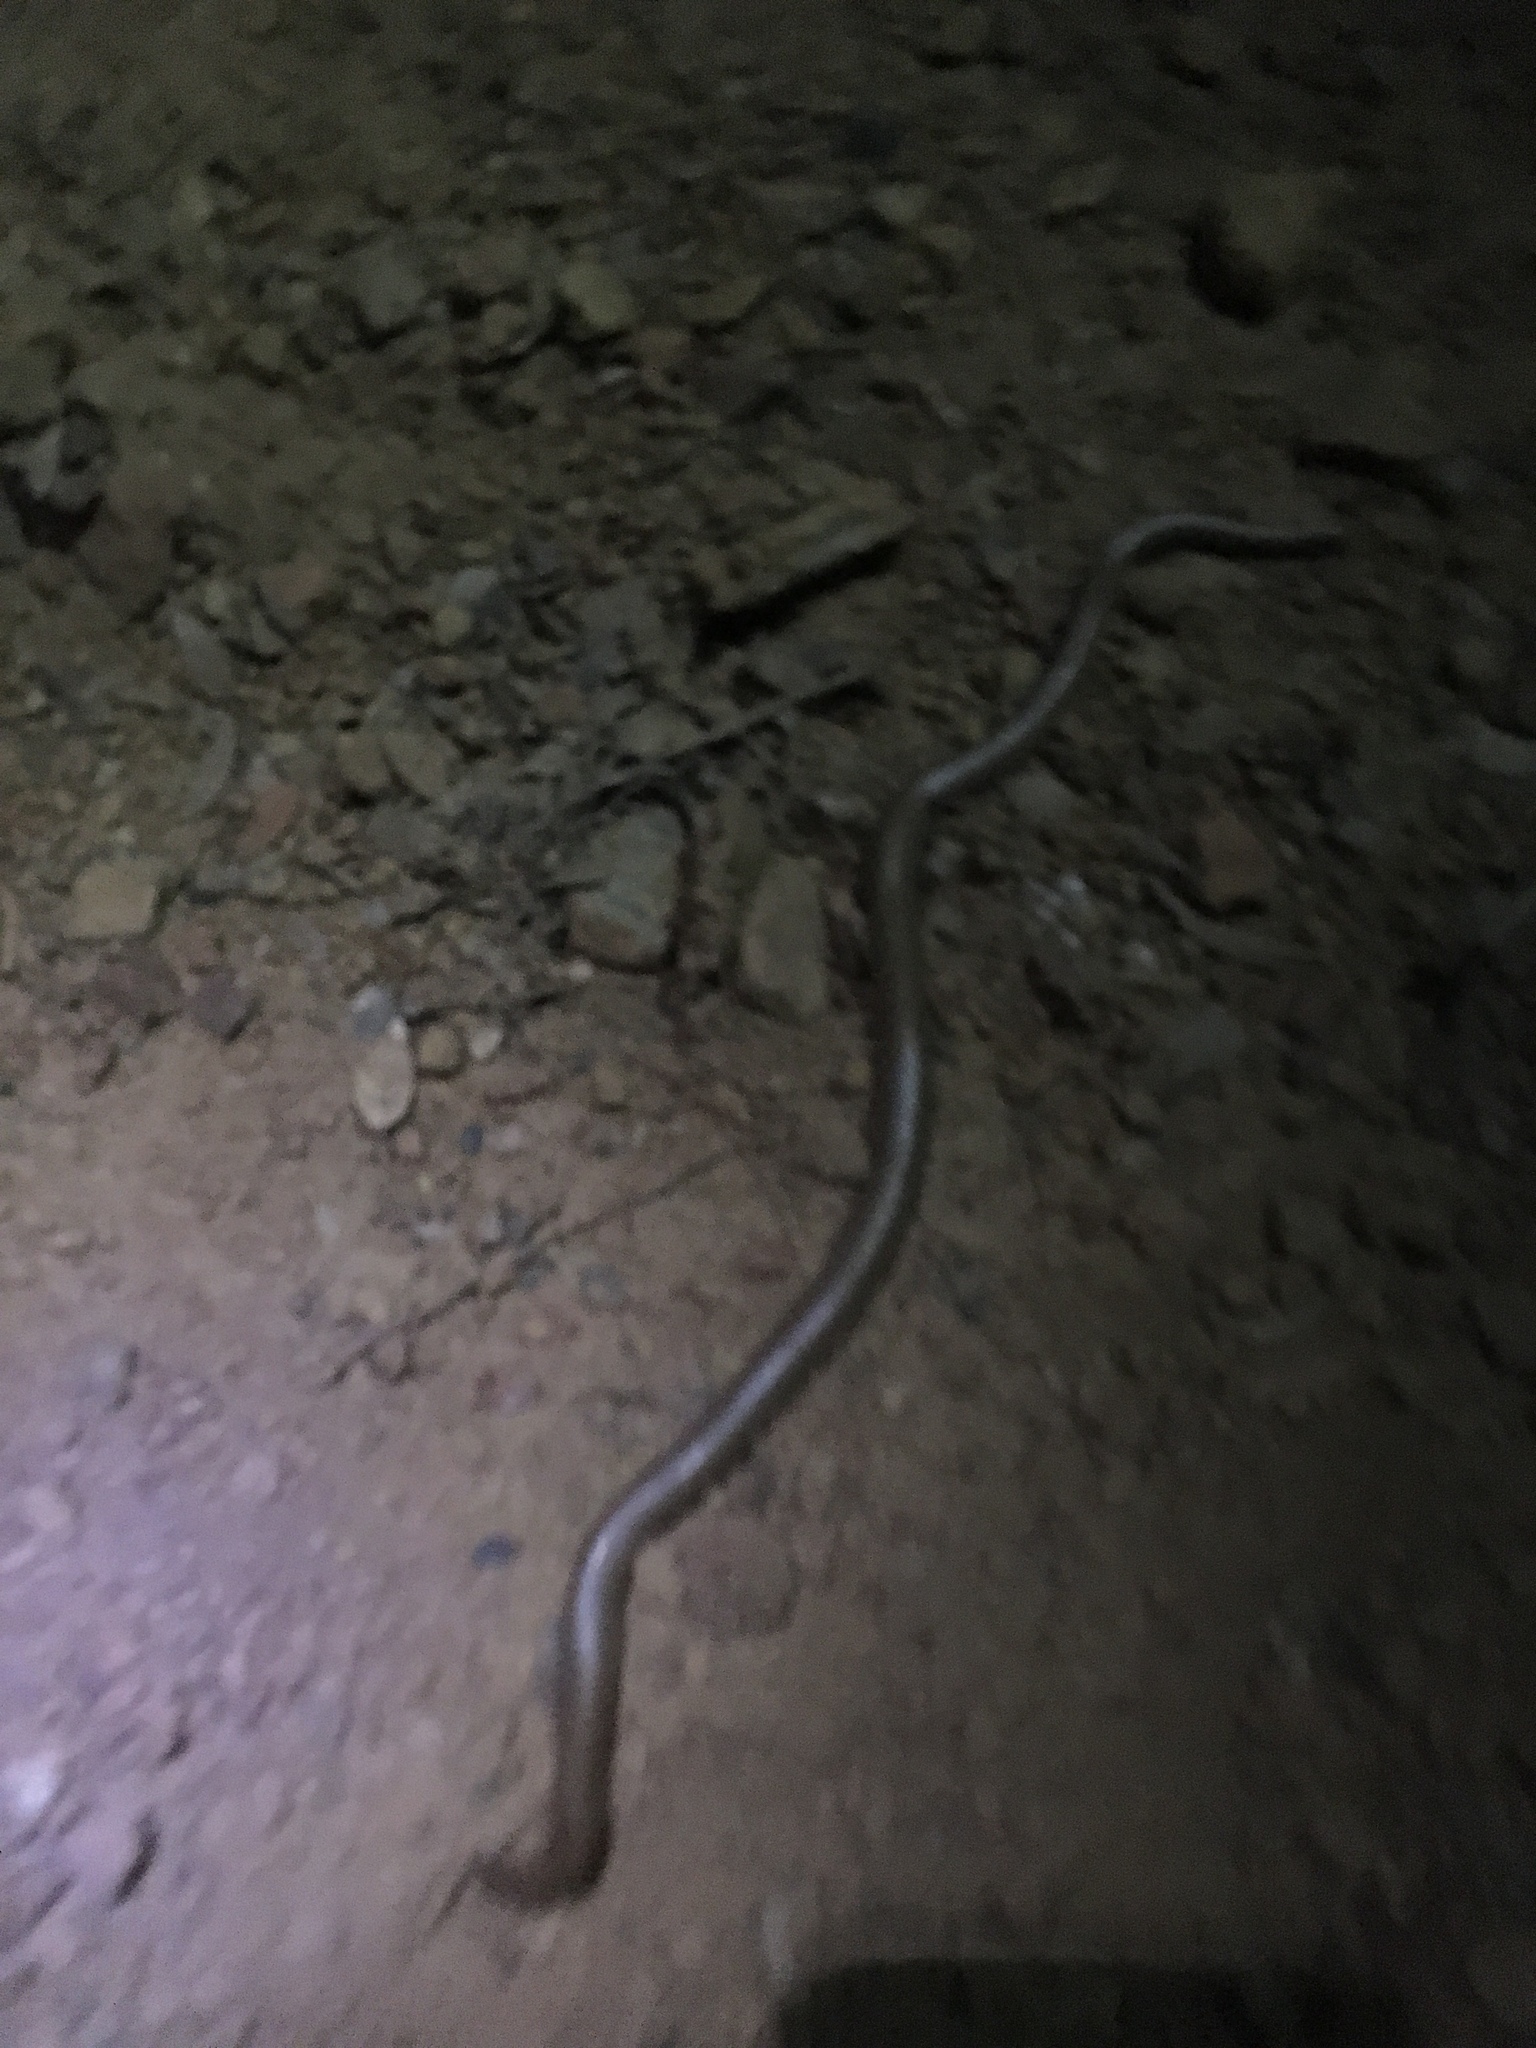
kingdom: Animalia
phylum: Chordata
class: Squamata
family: Boidae
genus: Charina
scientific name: Charina bottae
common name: Northern rubber boa
